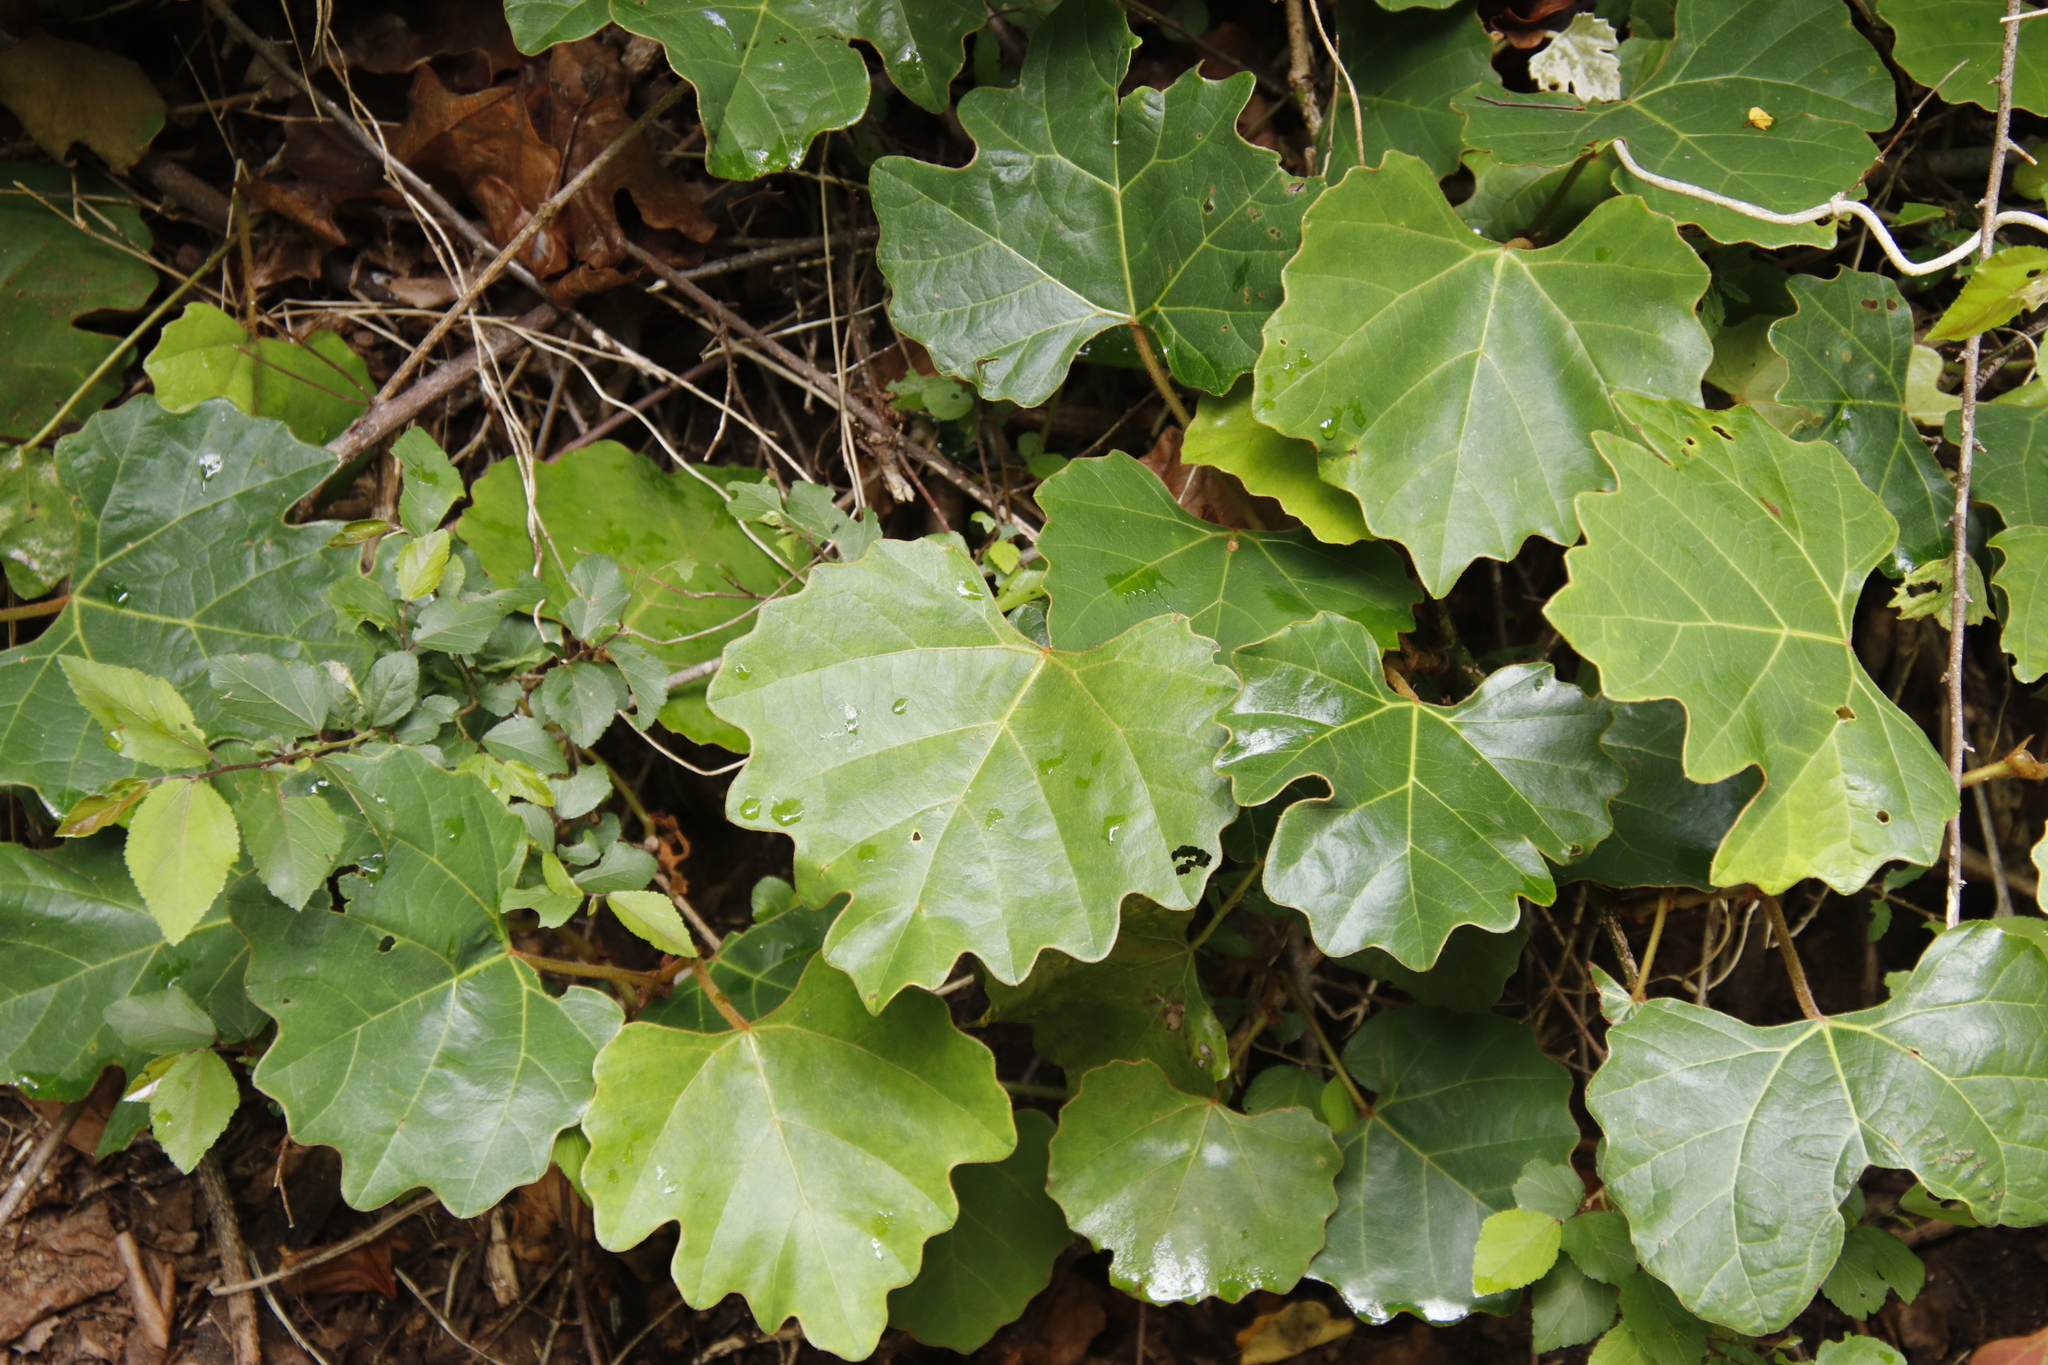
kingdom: Plantae
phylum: Tracheophyta
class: Magnoliopsida
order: Vitales
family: Vitaceae
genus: Rhoicissus
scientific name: Rhoicissus tomentosa
